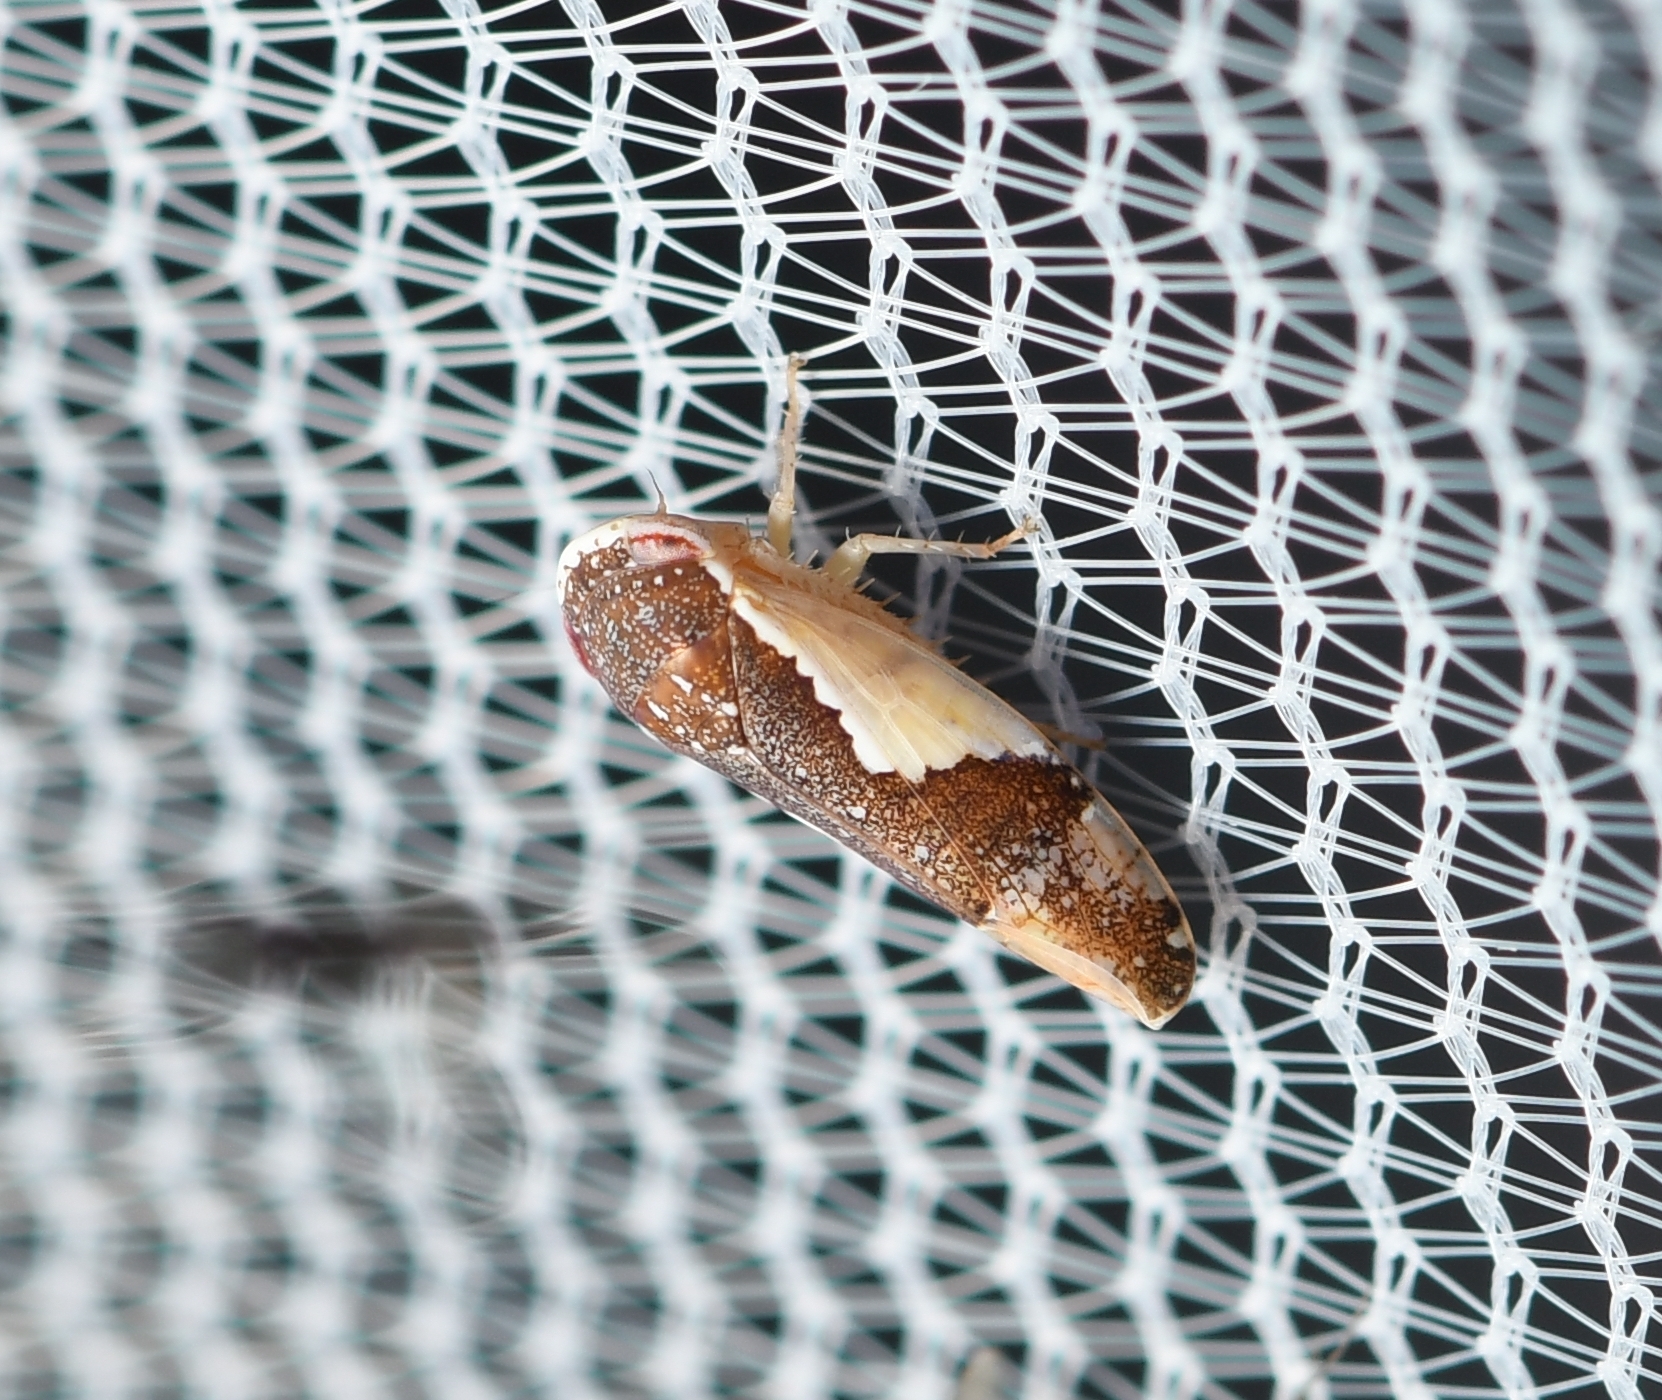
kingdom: Animalia
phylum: Arthropoda
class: Insecta
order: Hemiptera
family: Cicadellidae
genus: Norvellina
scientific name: Norvellina pulchella
